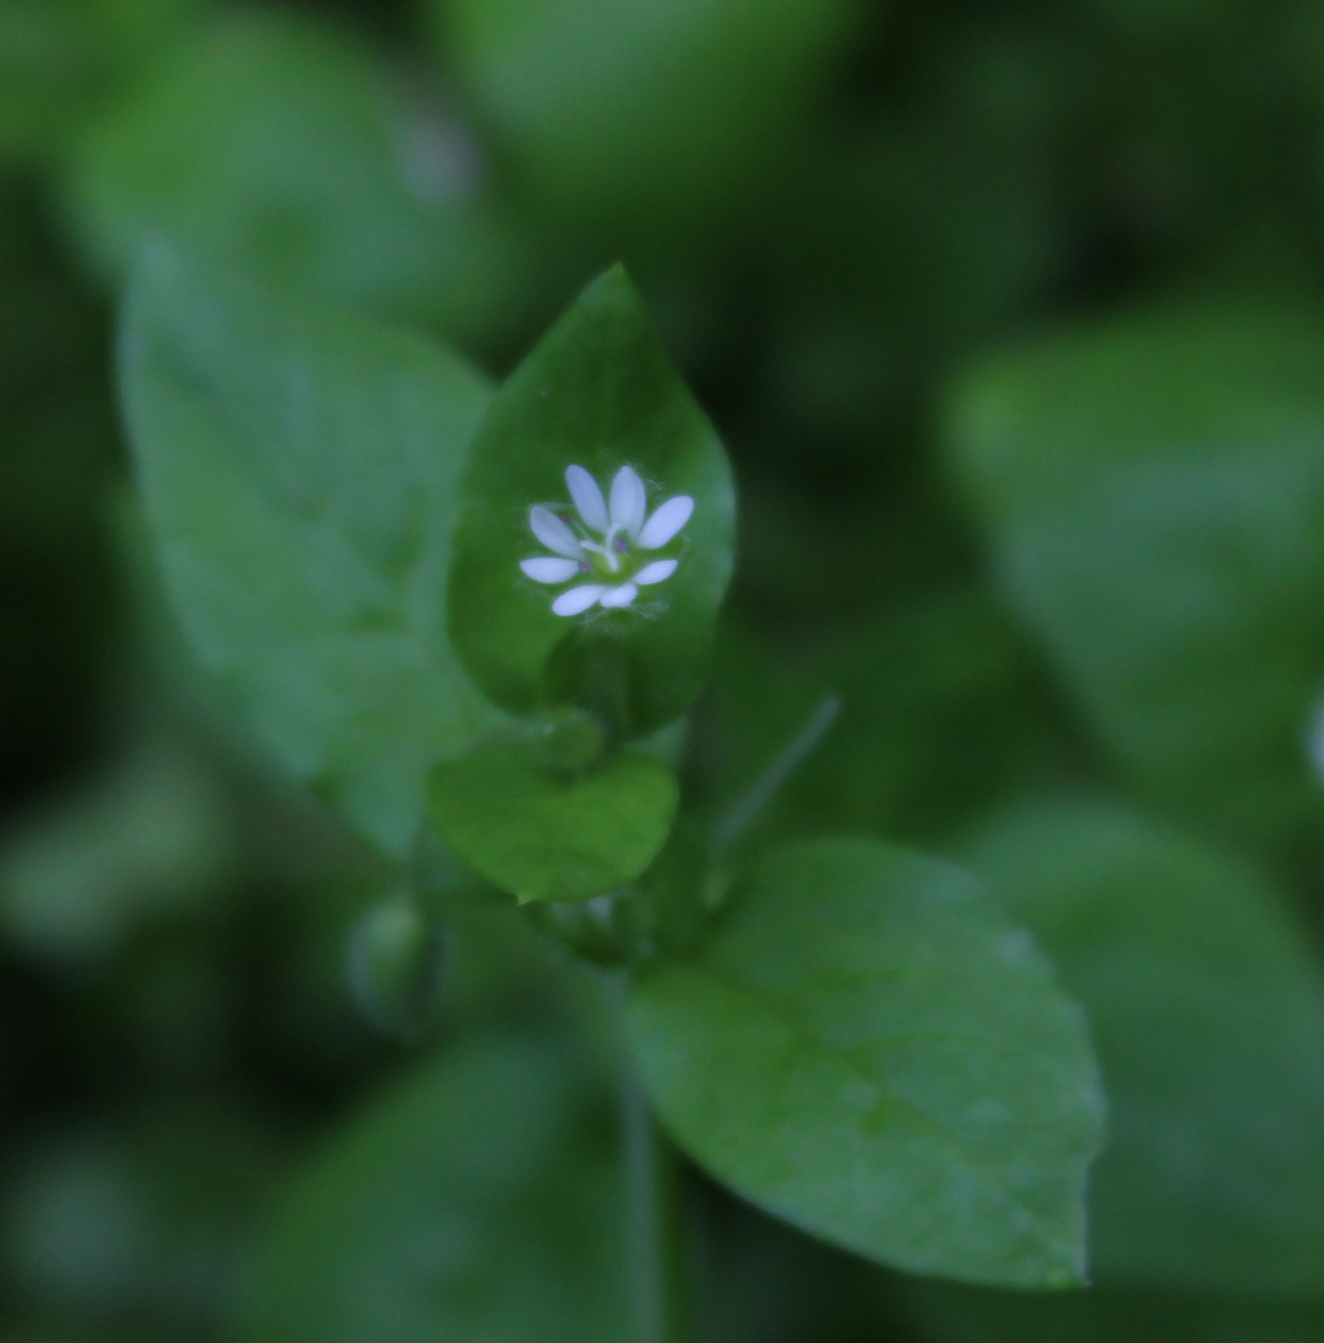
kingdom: Plantae
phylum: Tracheophyta
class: Magnoliopsida
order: Caryophyllales
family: Caryophyllaceae
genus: Stellaria
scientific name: Stellaria media
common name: Common chickweed
